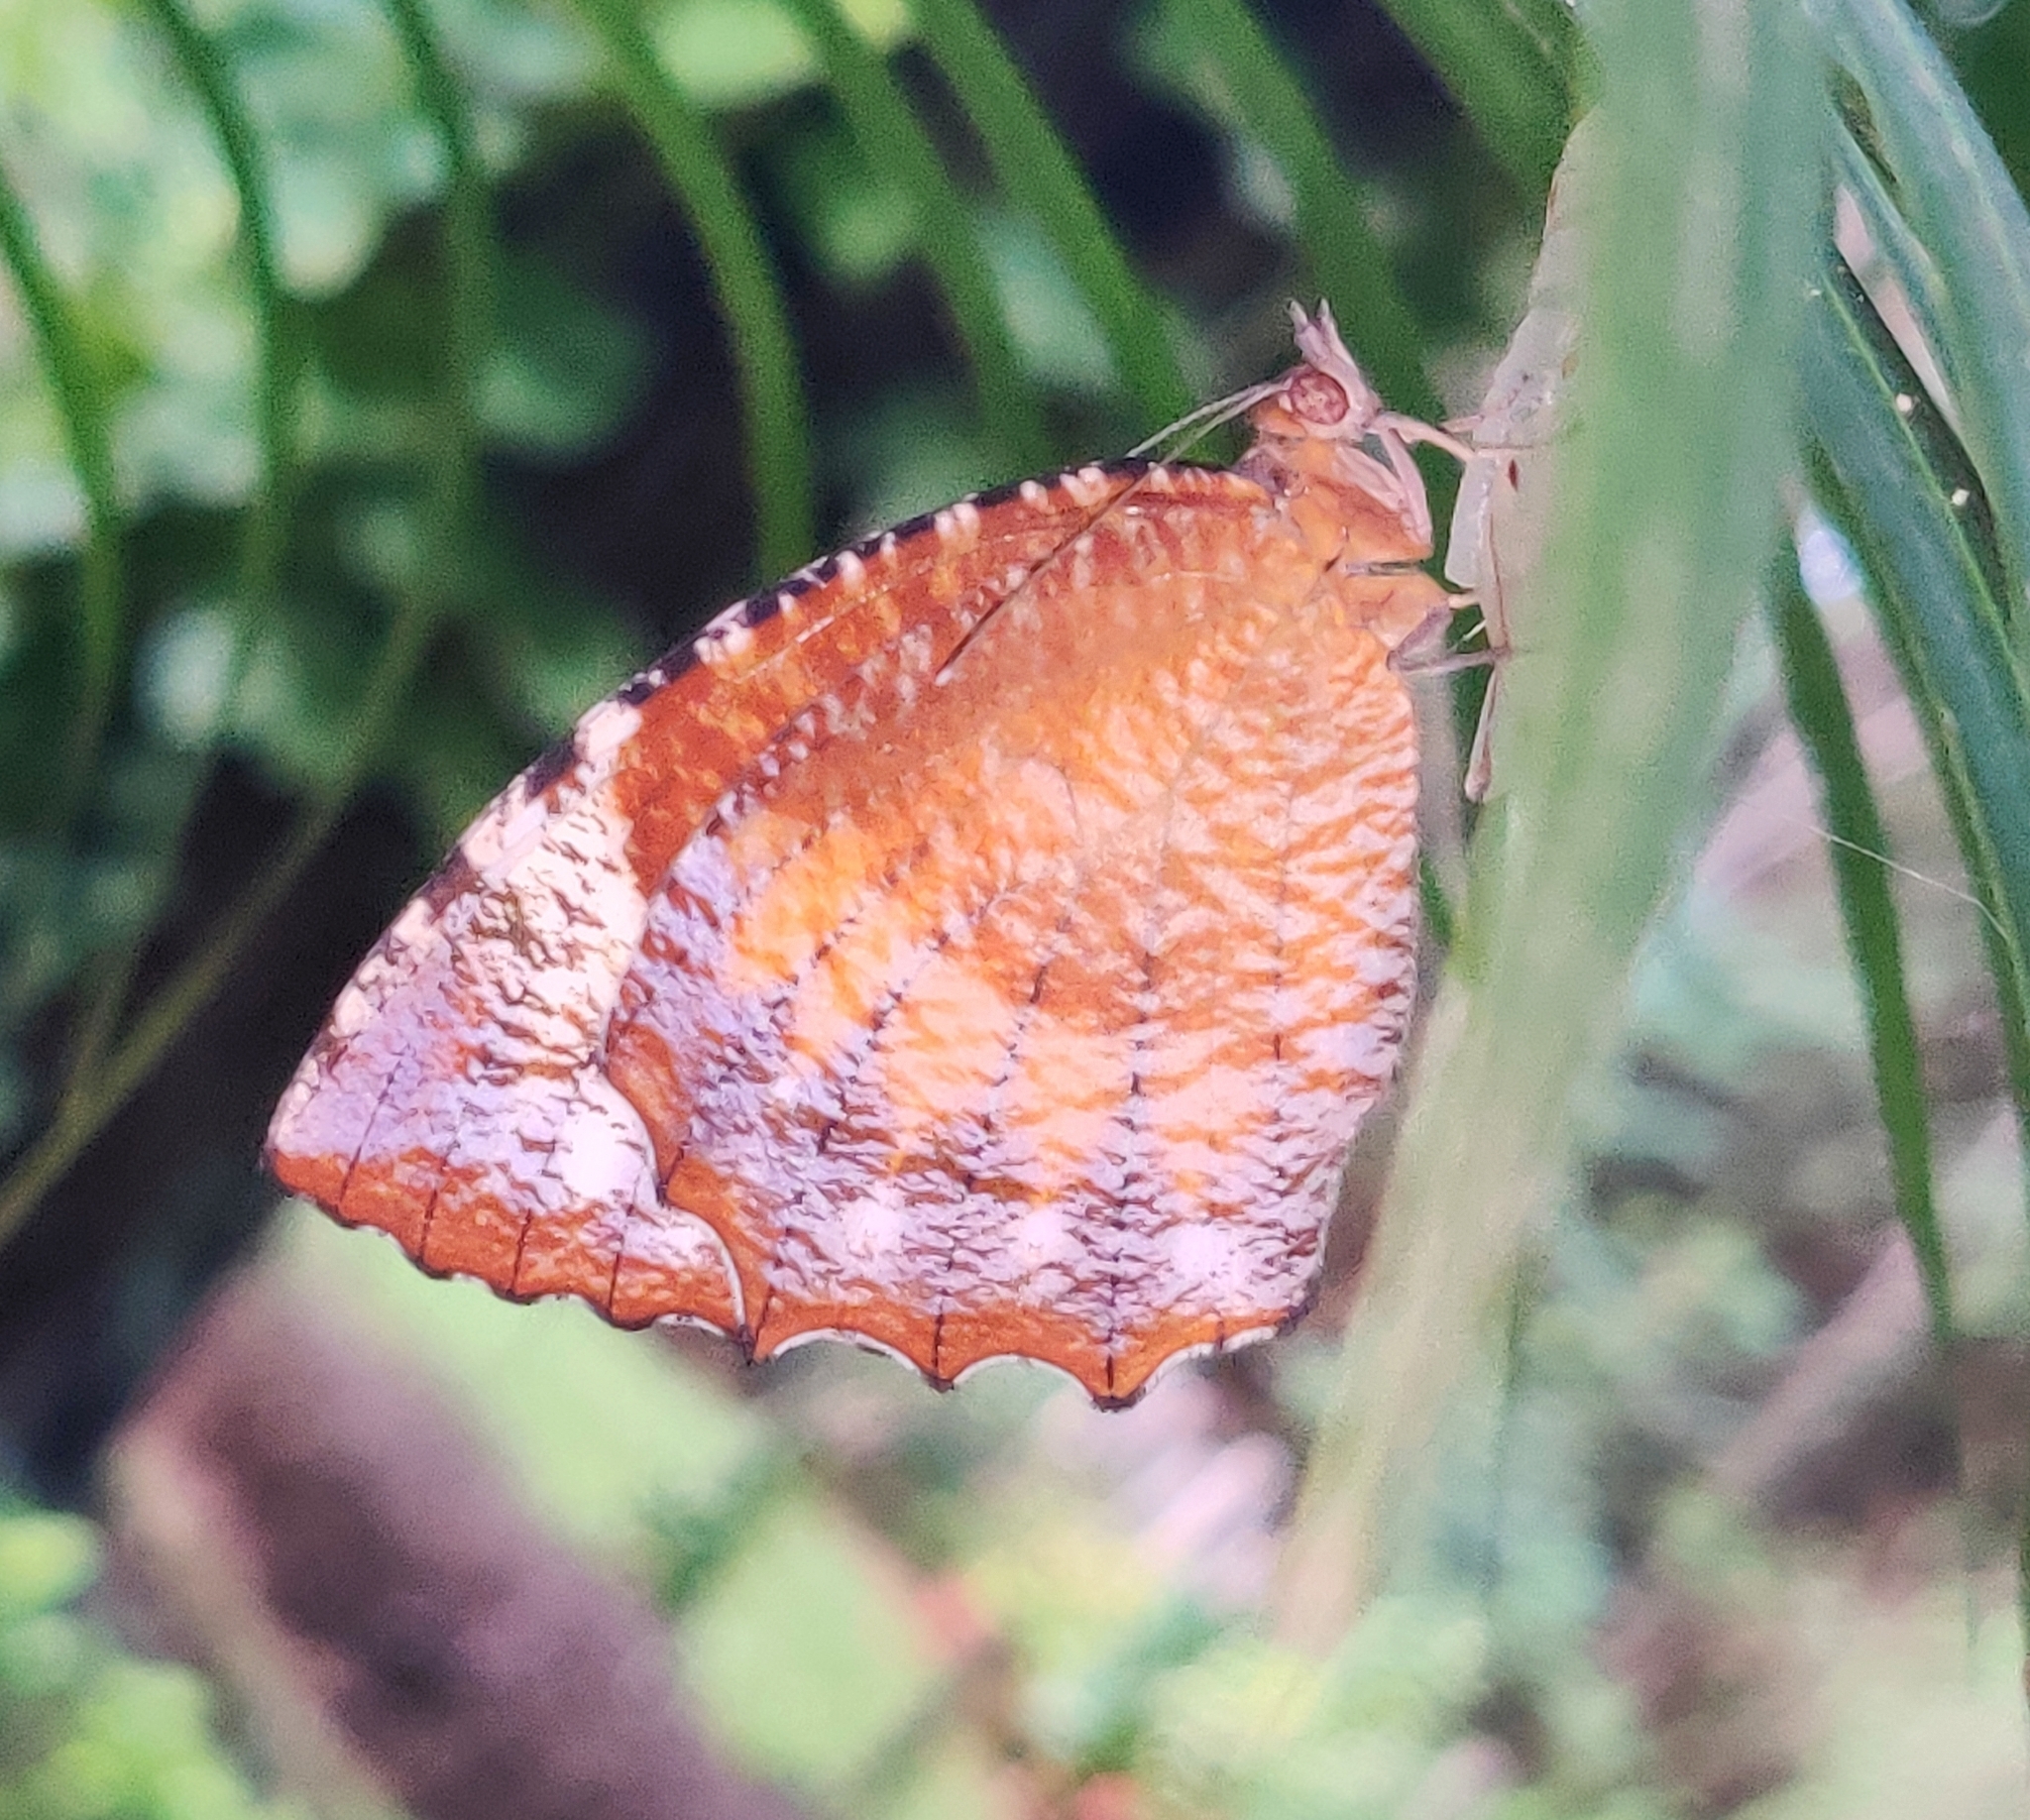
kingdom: Animalia
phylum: Arthropoda
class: Insecta
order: Lepidoptera
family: Nymphalidae
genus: Elymnias
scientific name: Elymnias hypermnestra
